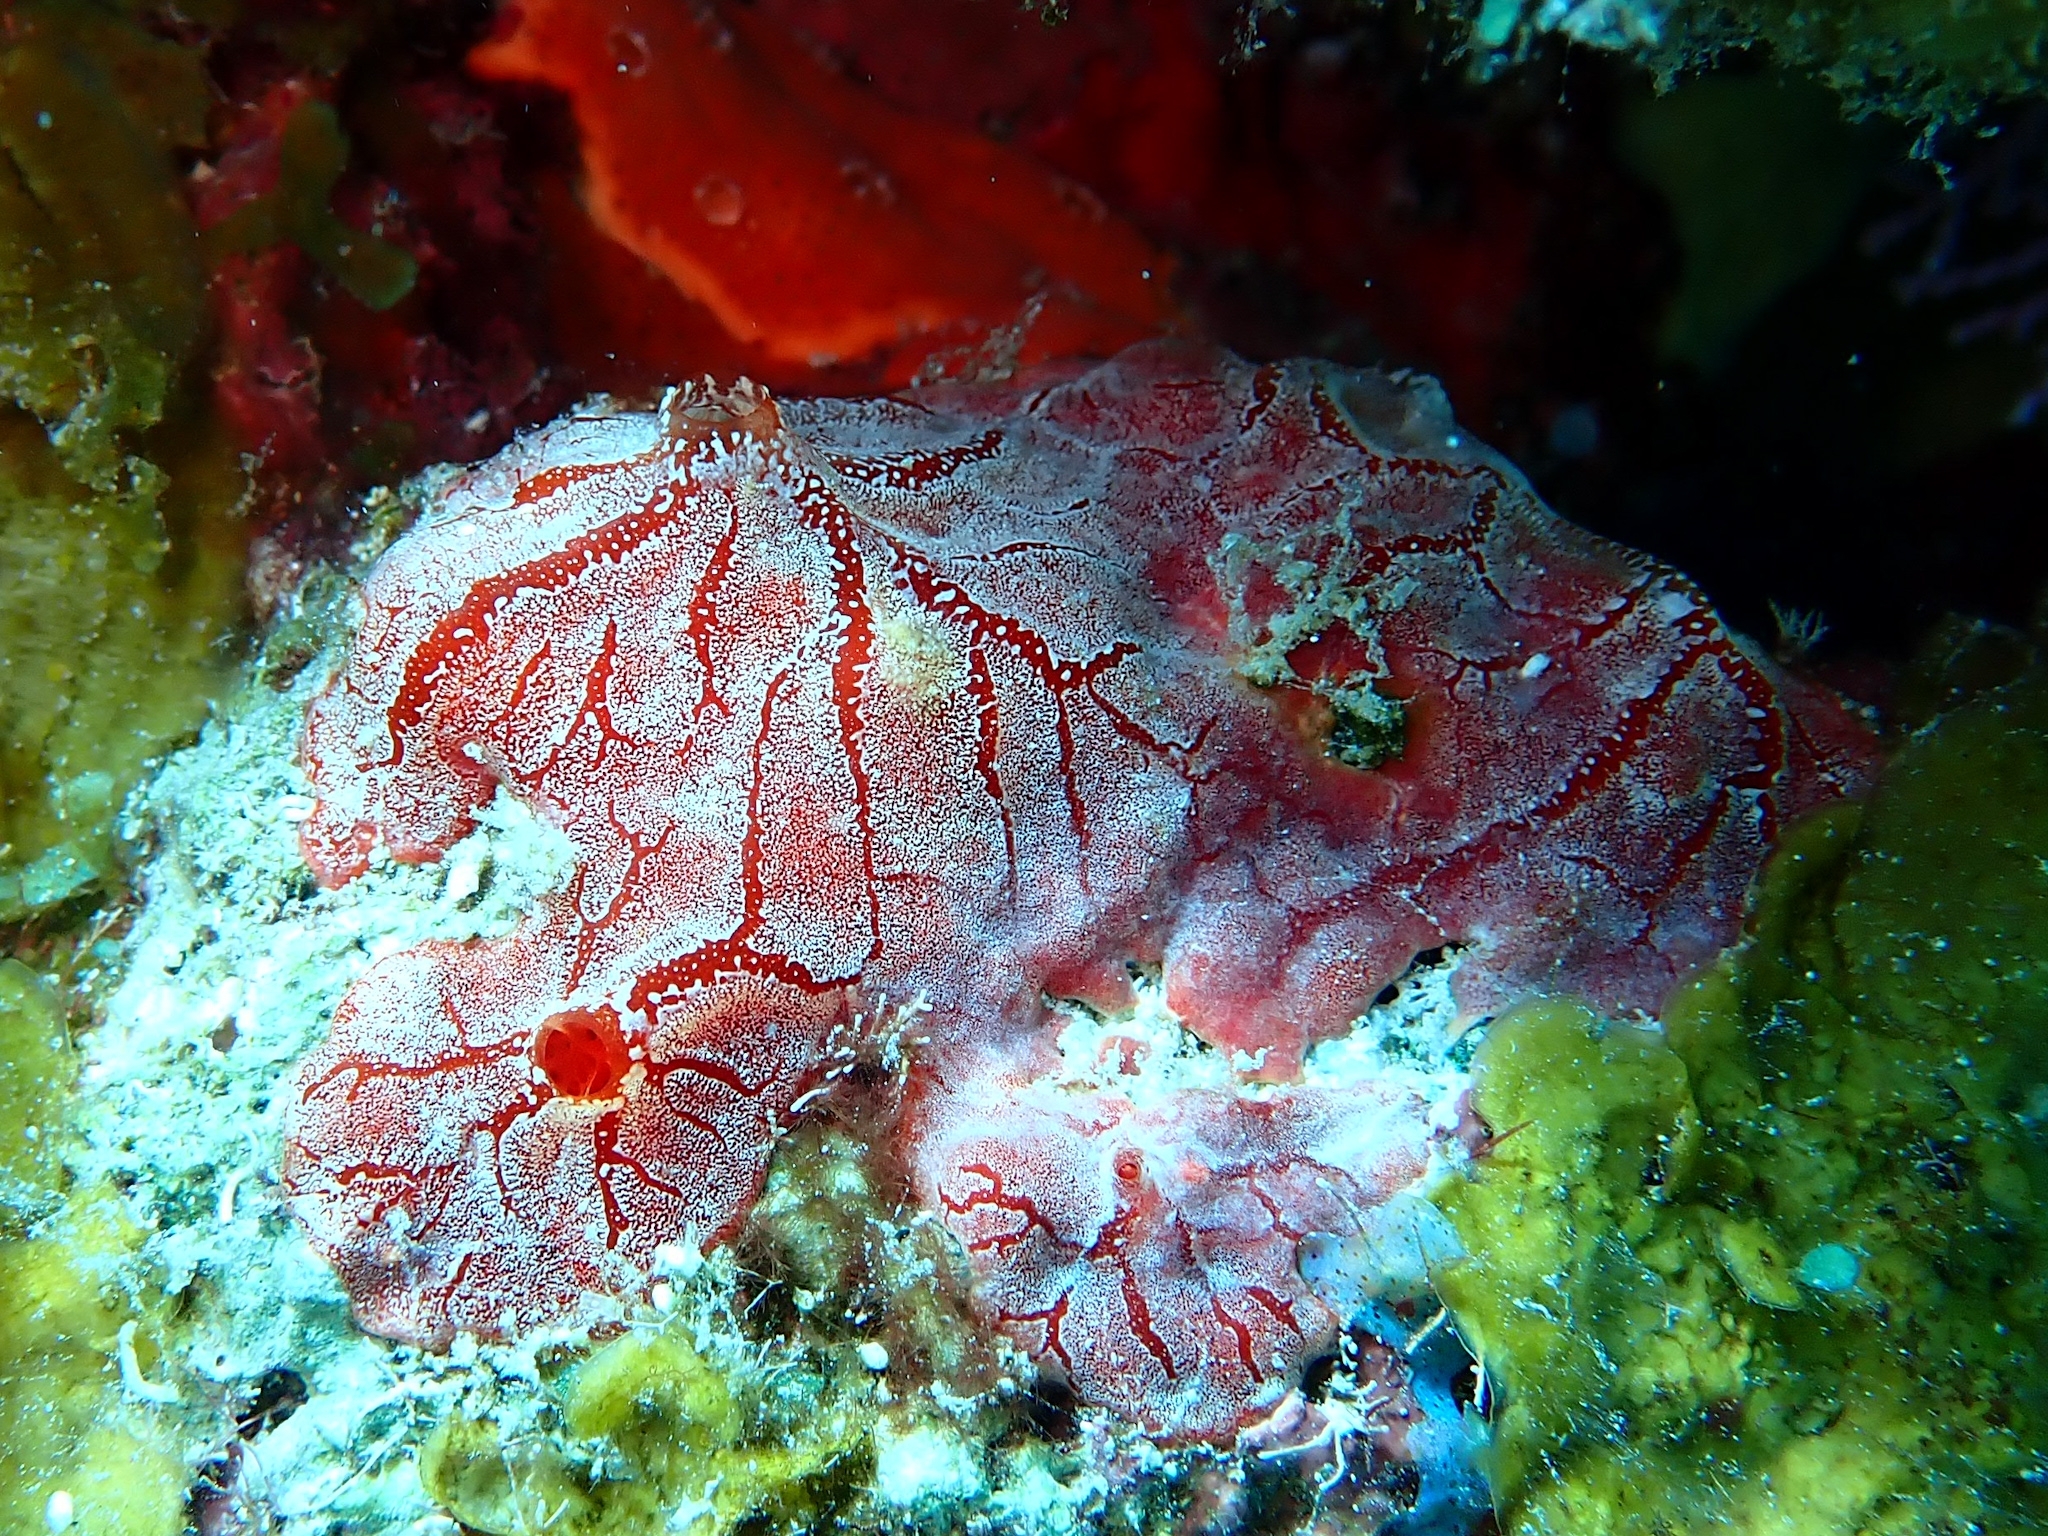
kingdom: Animalia
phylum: Porifera
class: Demospongiae
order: Poecilosclerida
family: Crambeidae
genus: Monanchora
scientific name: Monanchora arbuscula
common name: Red-white marbled sponge
